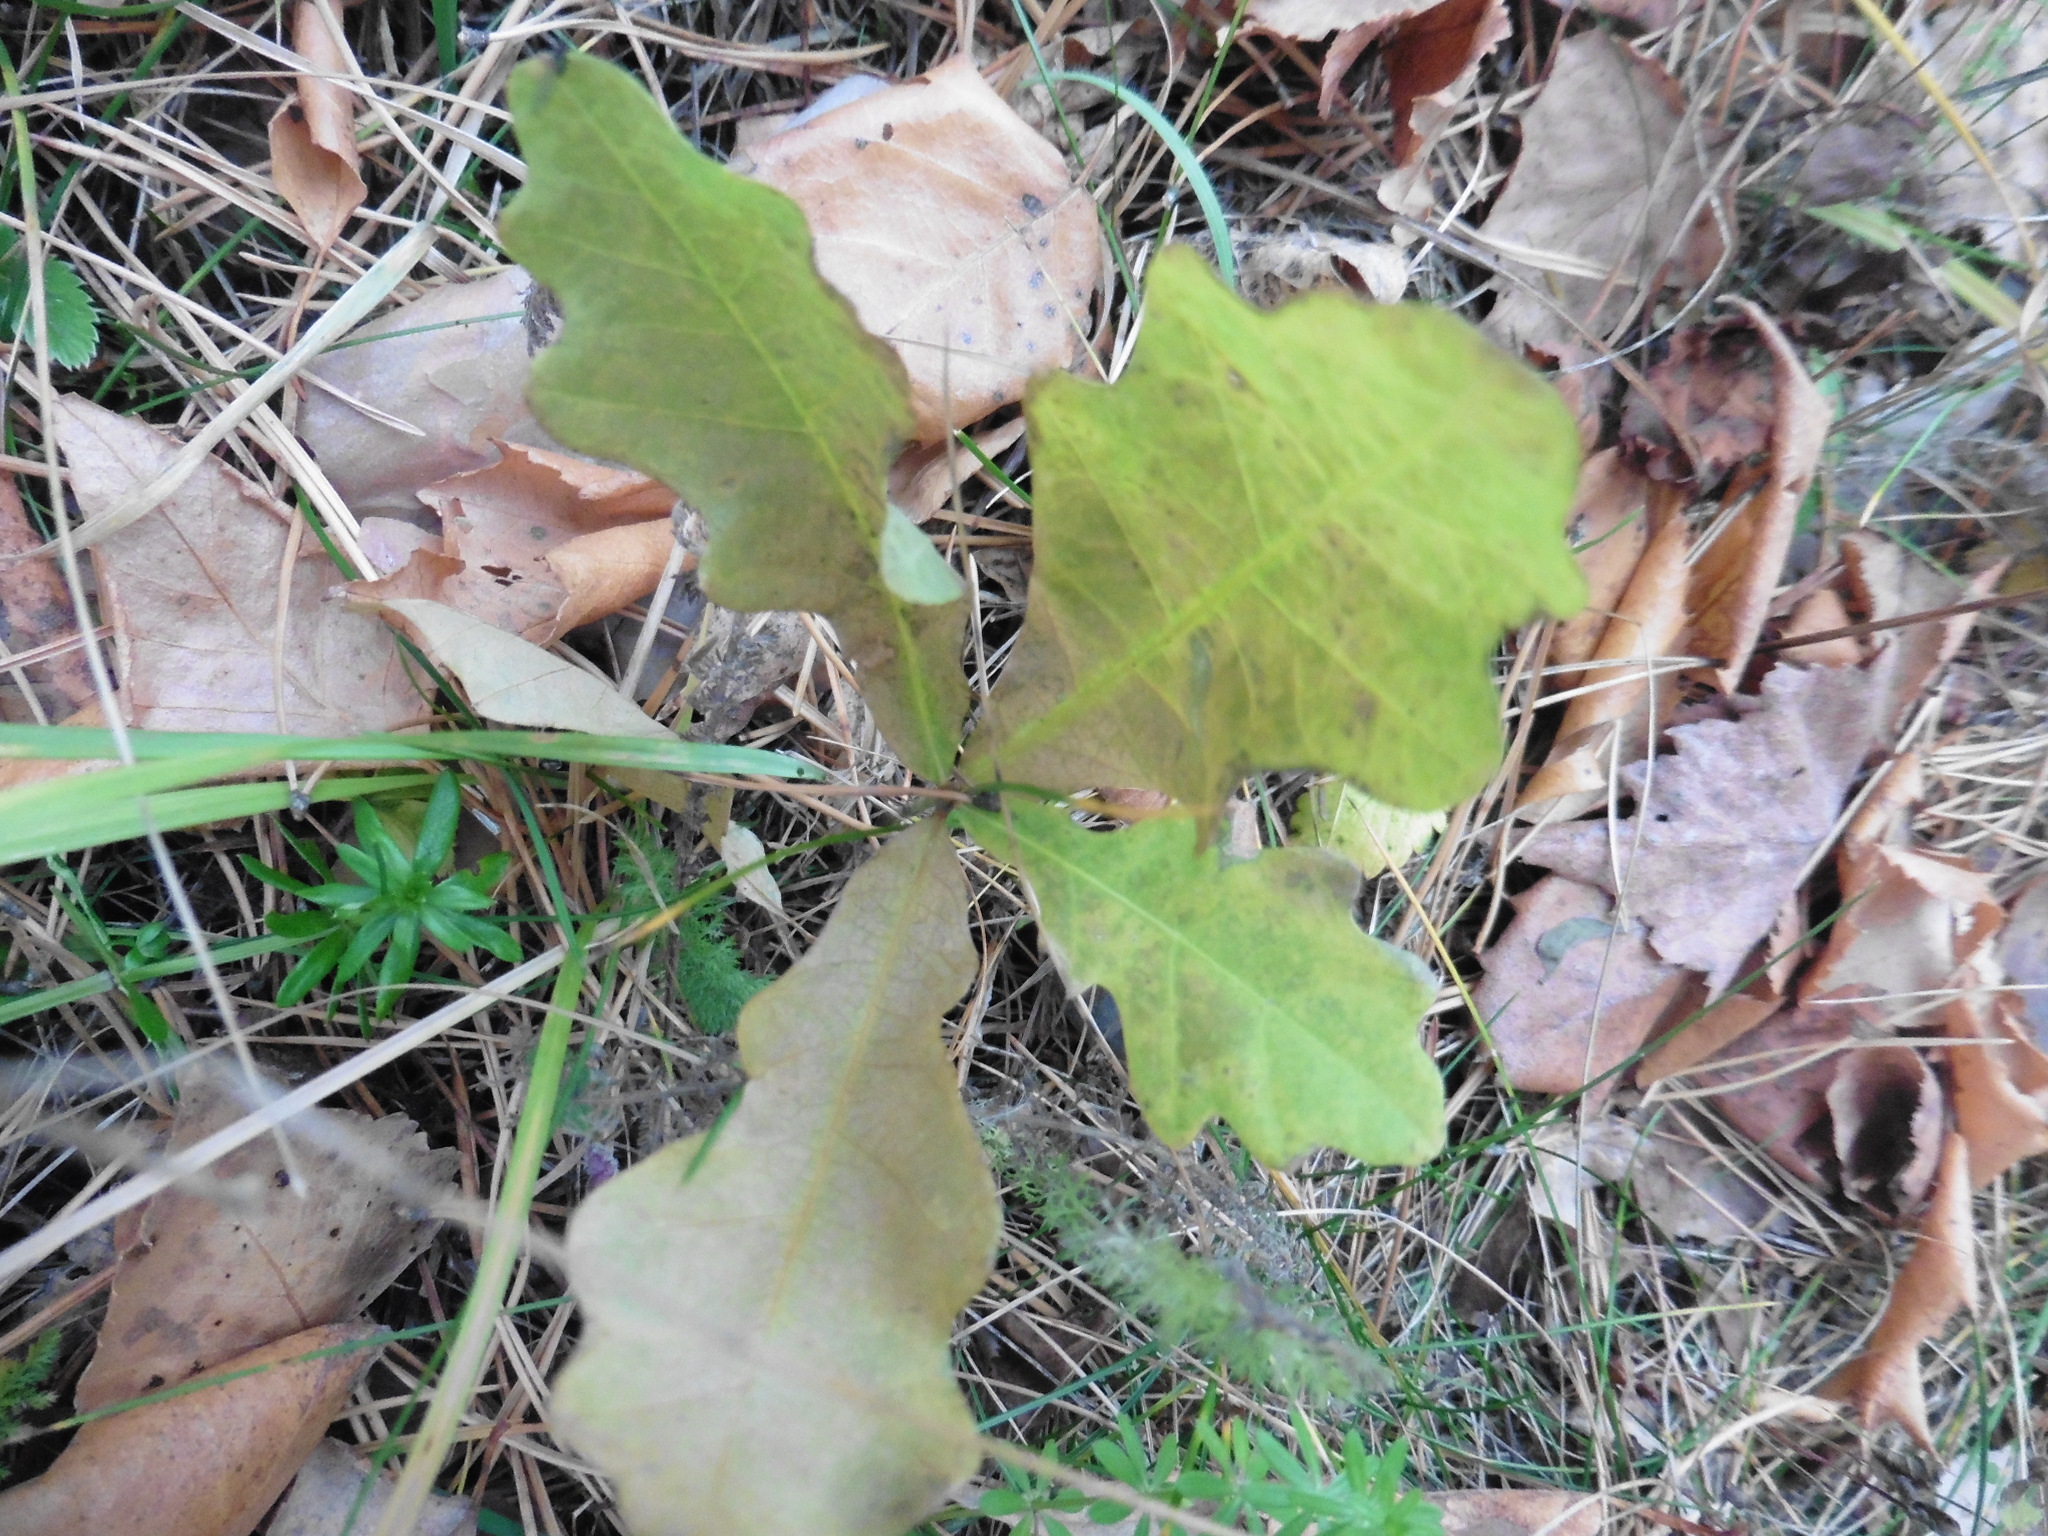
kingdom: Plantae
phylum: Tracheophyta
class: Magnoliopsida
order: Fagales
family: Fagaceae
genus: Quercus
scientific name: Quercus robur
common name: Pedunculate oak
